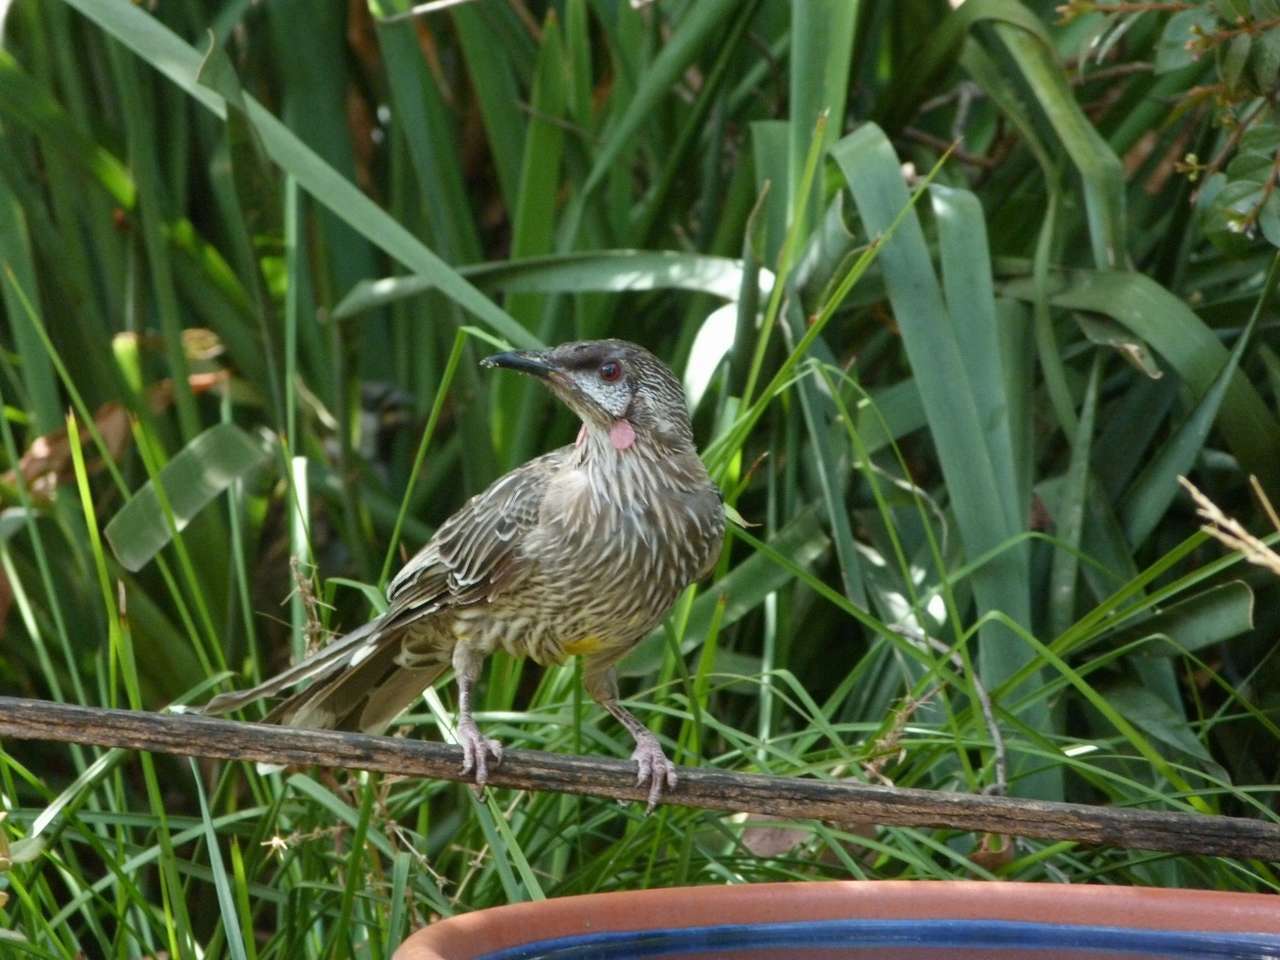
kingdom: Animalia
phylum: Chordata
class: Aves
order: Passeriformes
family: Meliphagidae
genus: Anthochaera
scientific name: Anthochaera carunculata
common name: Red wattlebird
